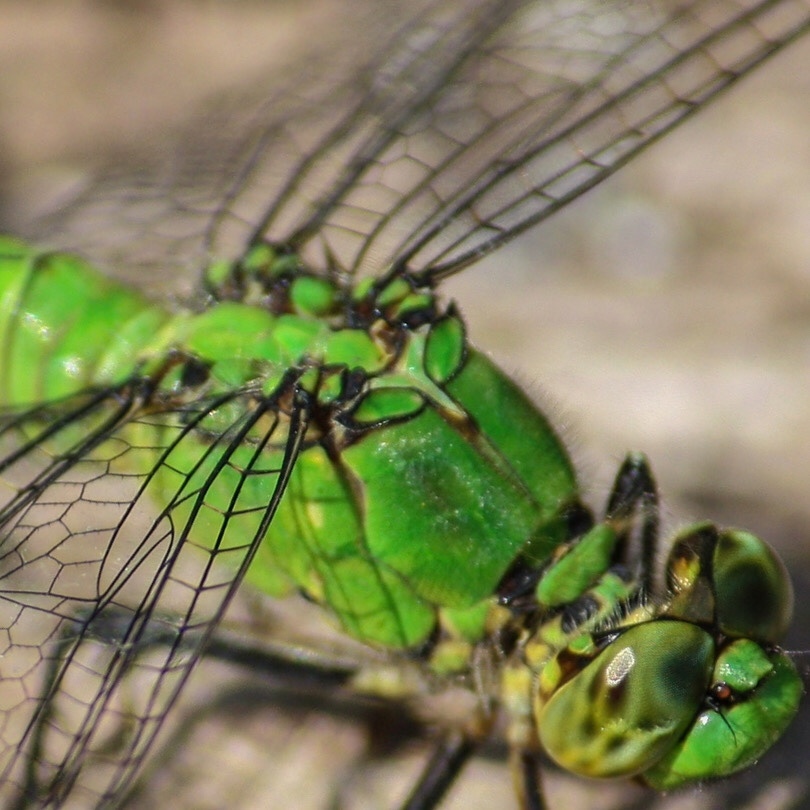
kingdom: Animalia
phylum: Arthropoda
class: Insecta
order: Odonata
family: Libellulidae
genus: Erythemis
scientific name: Erythemis simplicicollis
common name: Eastern pondhawk
